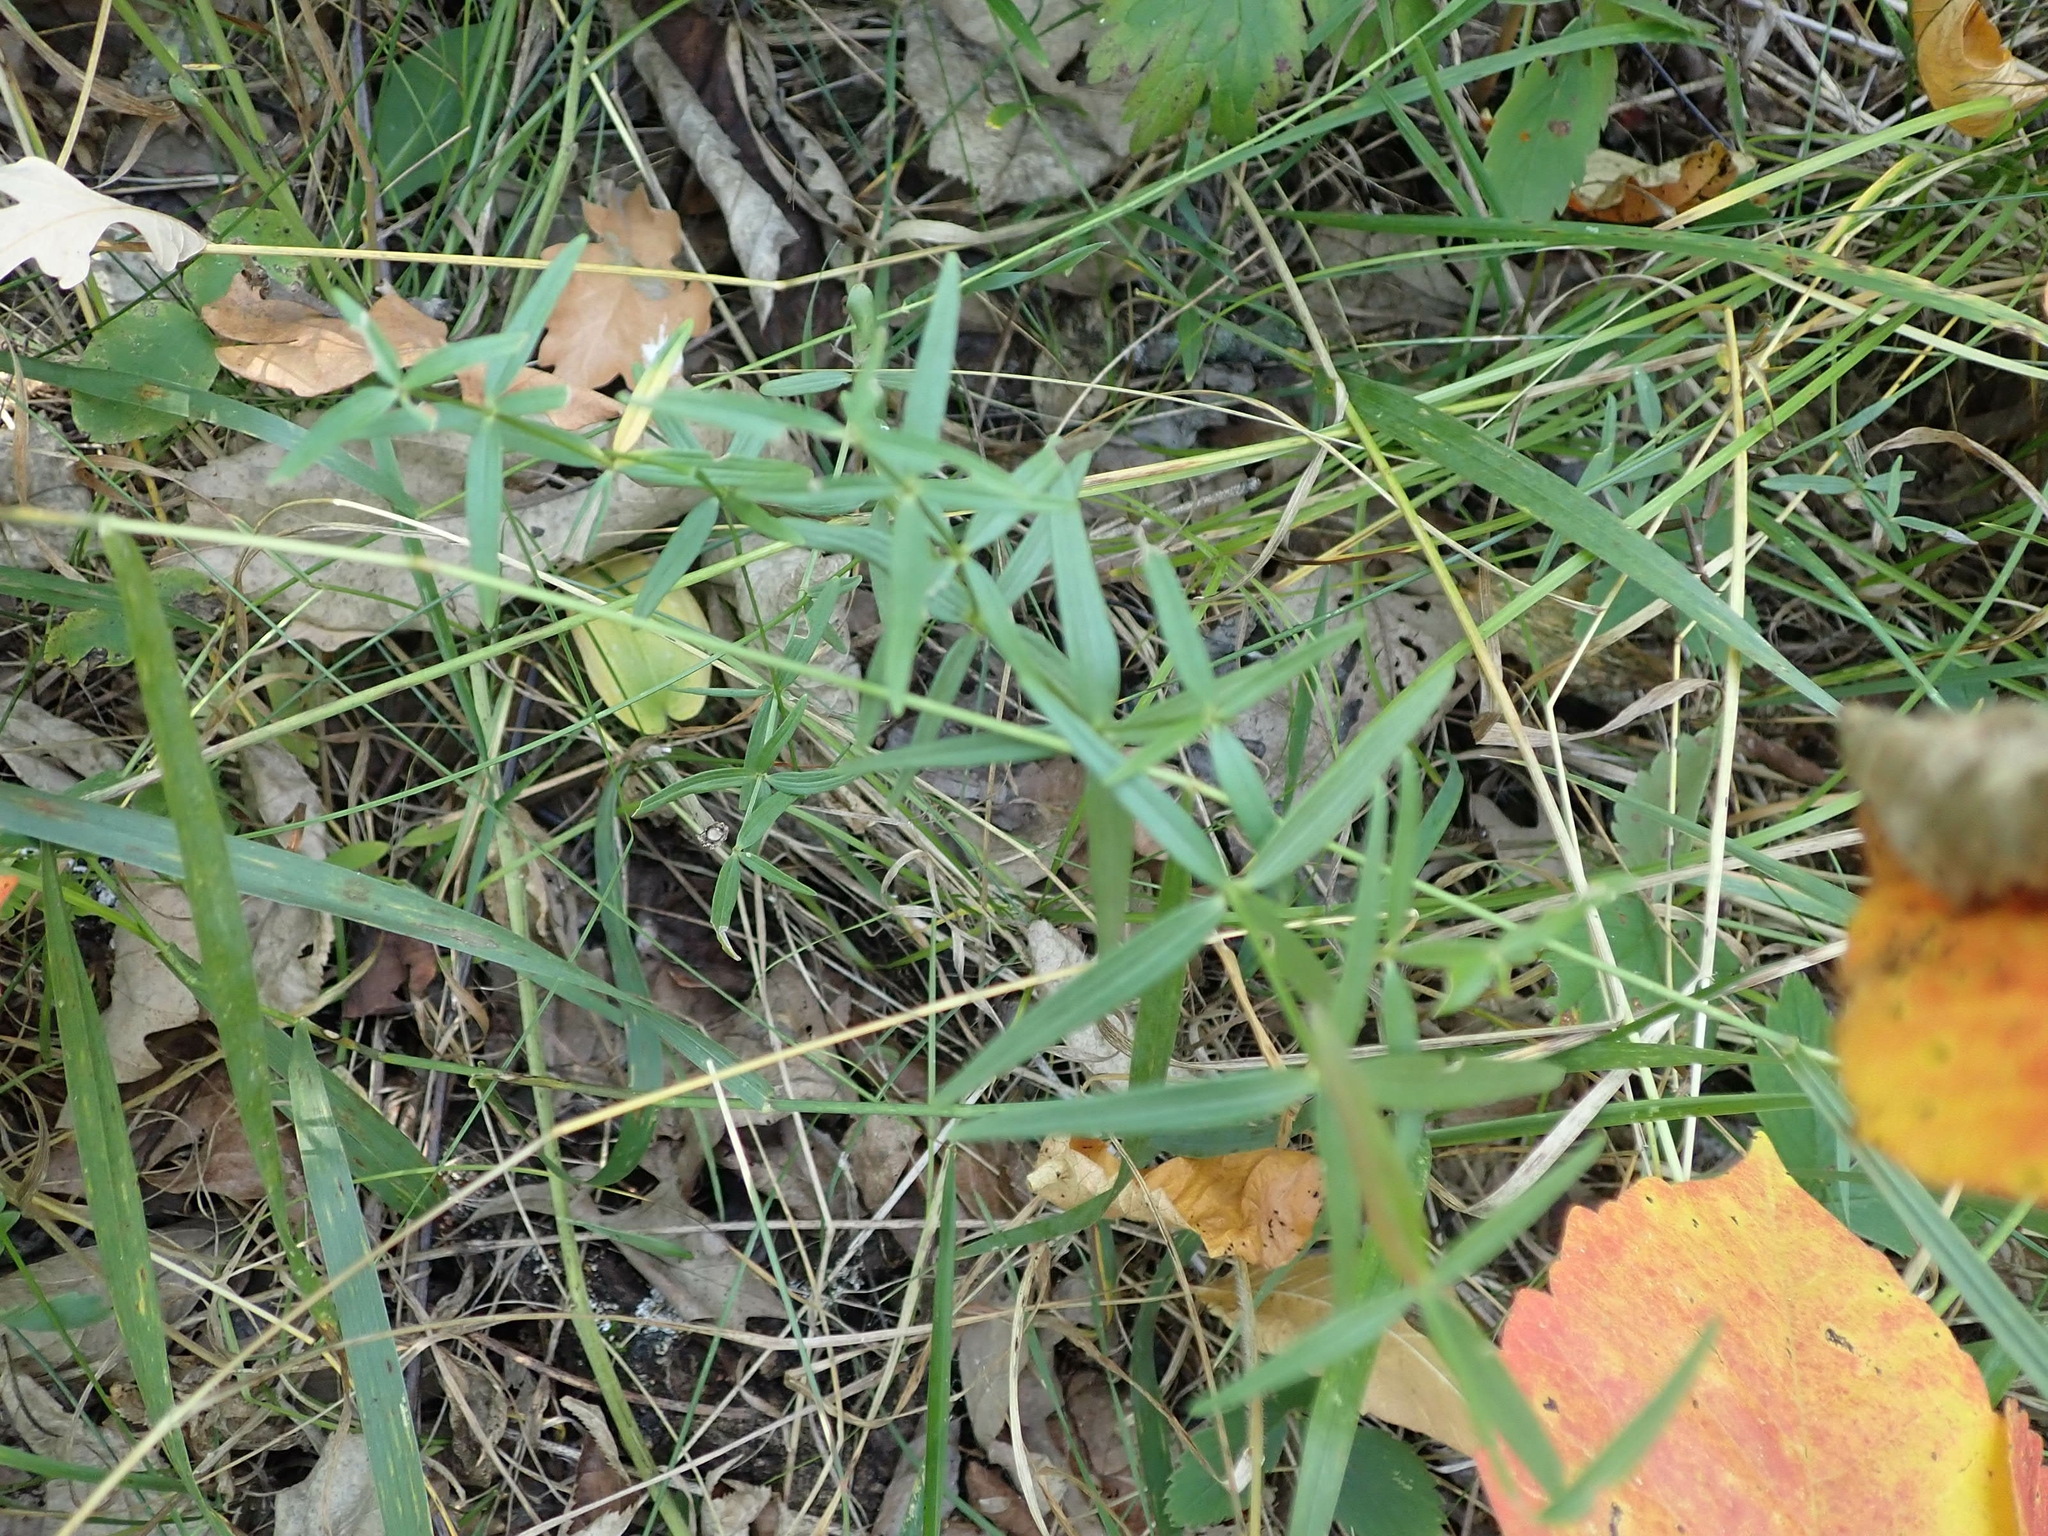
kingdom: Plantae
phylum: Tracheophyta
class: Magnoliopsida
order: Gentianales
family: Rubiaceae
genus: Galium
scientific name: Galium boreale
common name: Northern bedstraw
